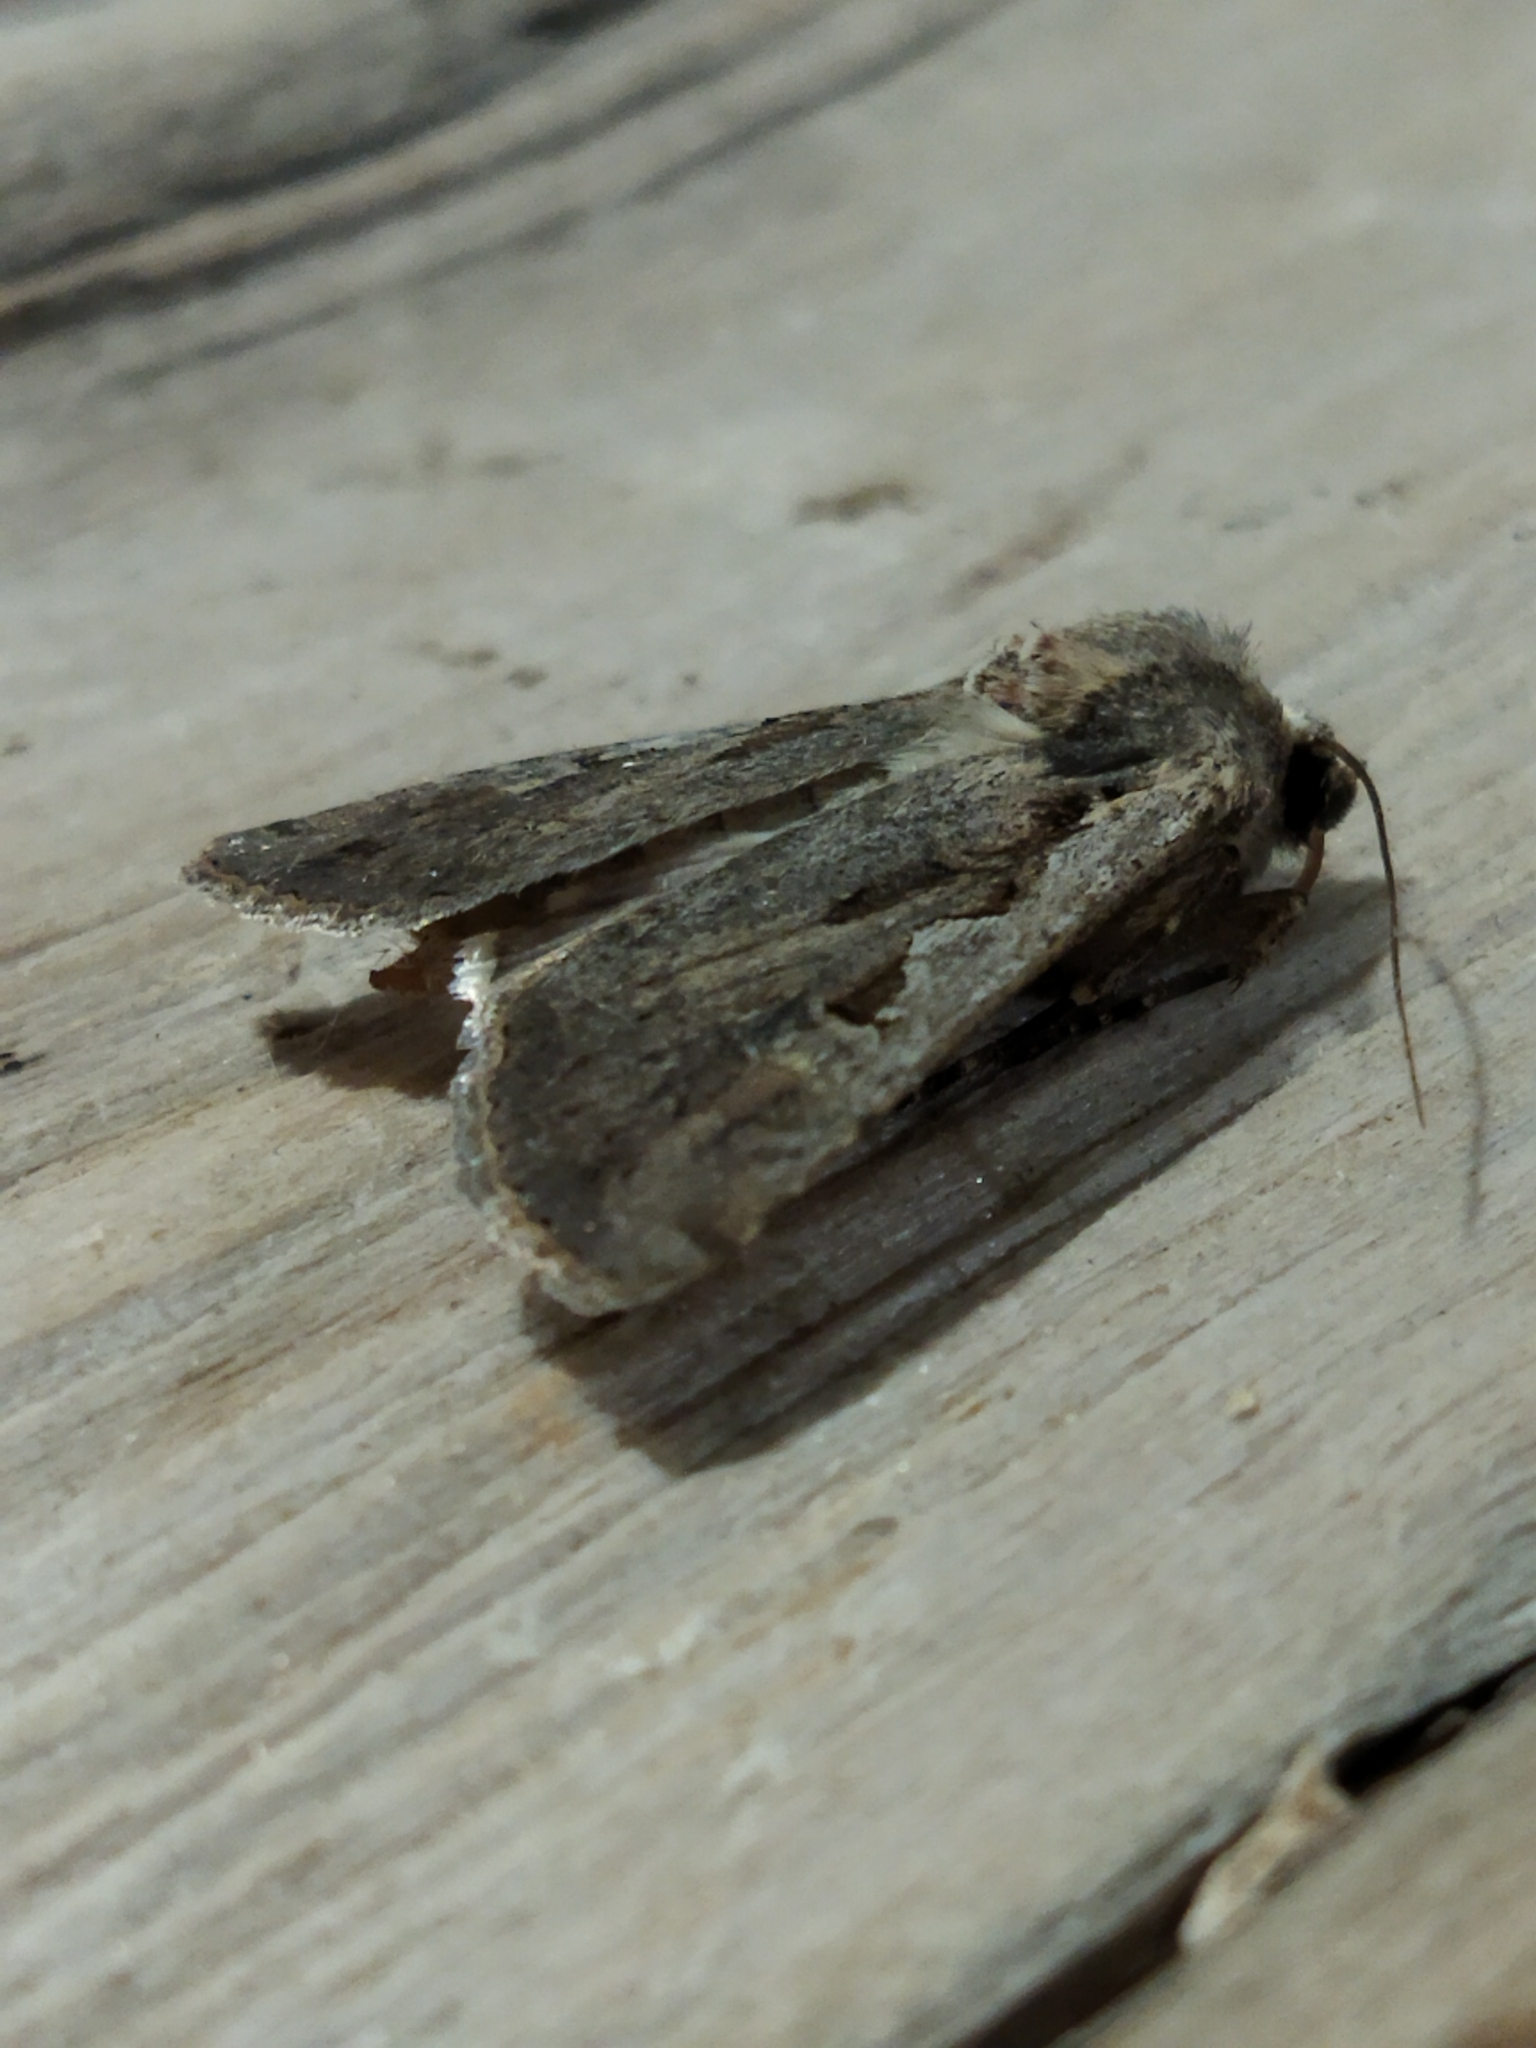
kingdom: Animalia
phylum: Arthropoda
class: Insecta
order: Lepidoptera
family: Noctuidae
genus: Euxoa
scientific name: Euxoa temera
